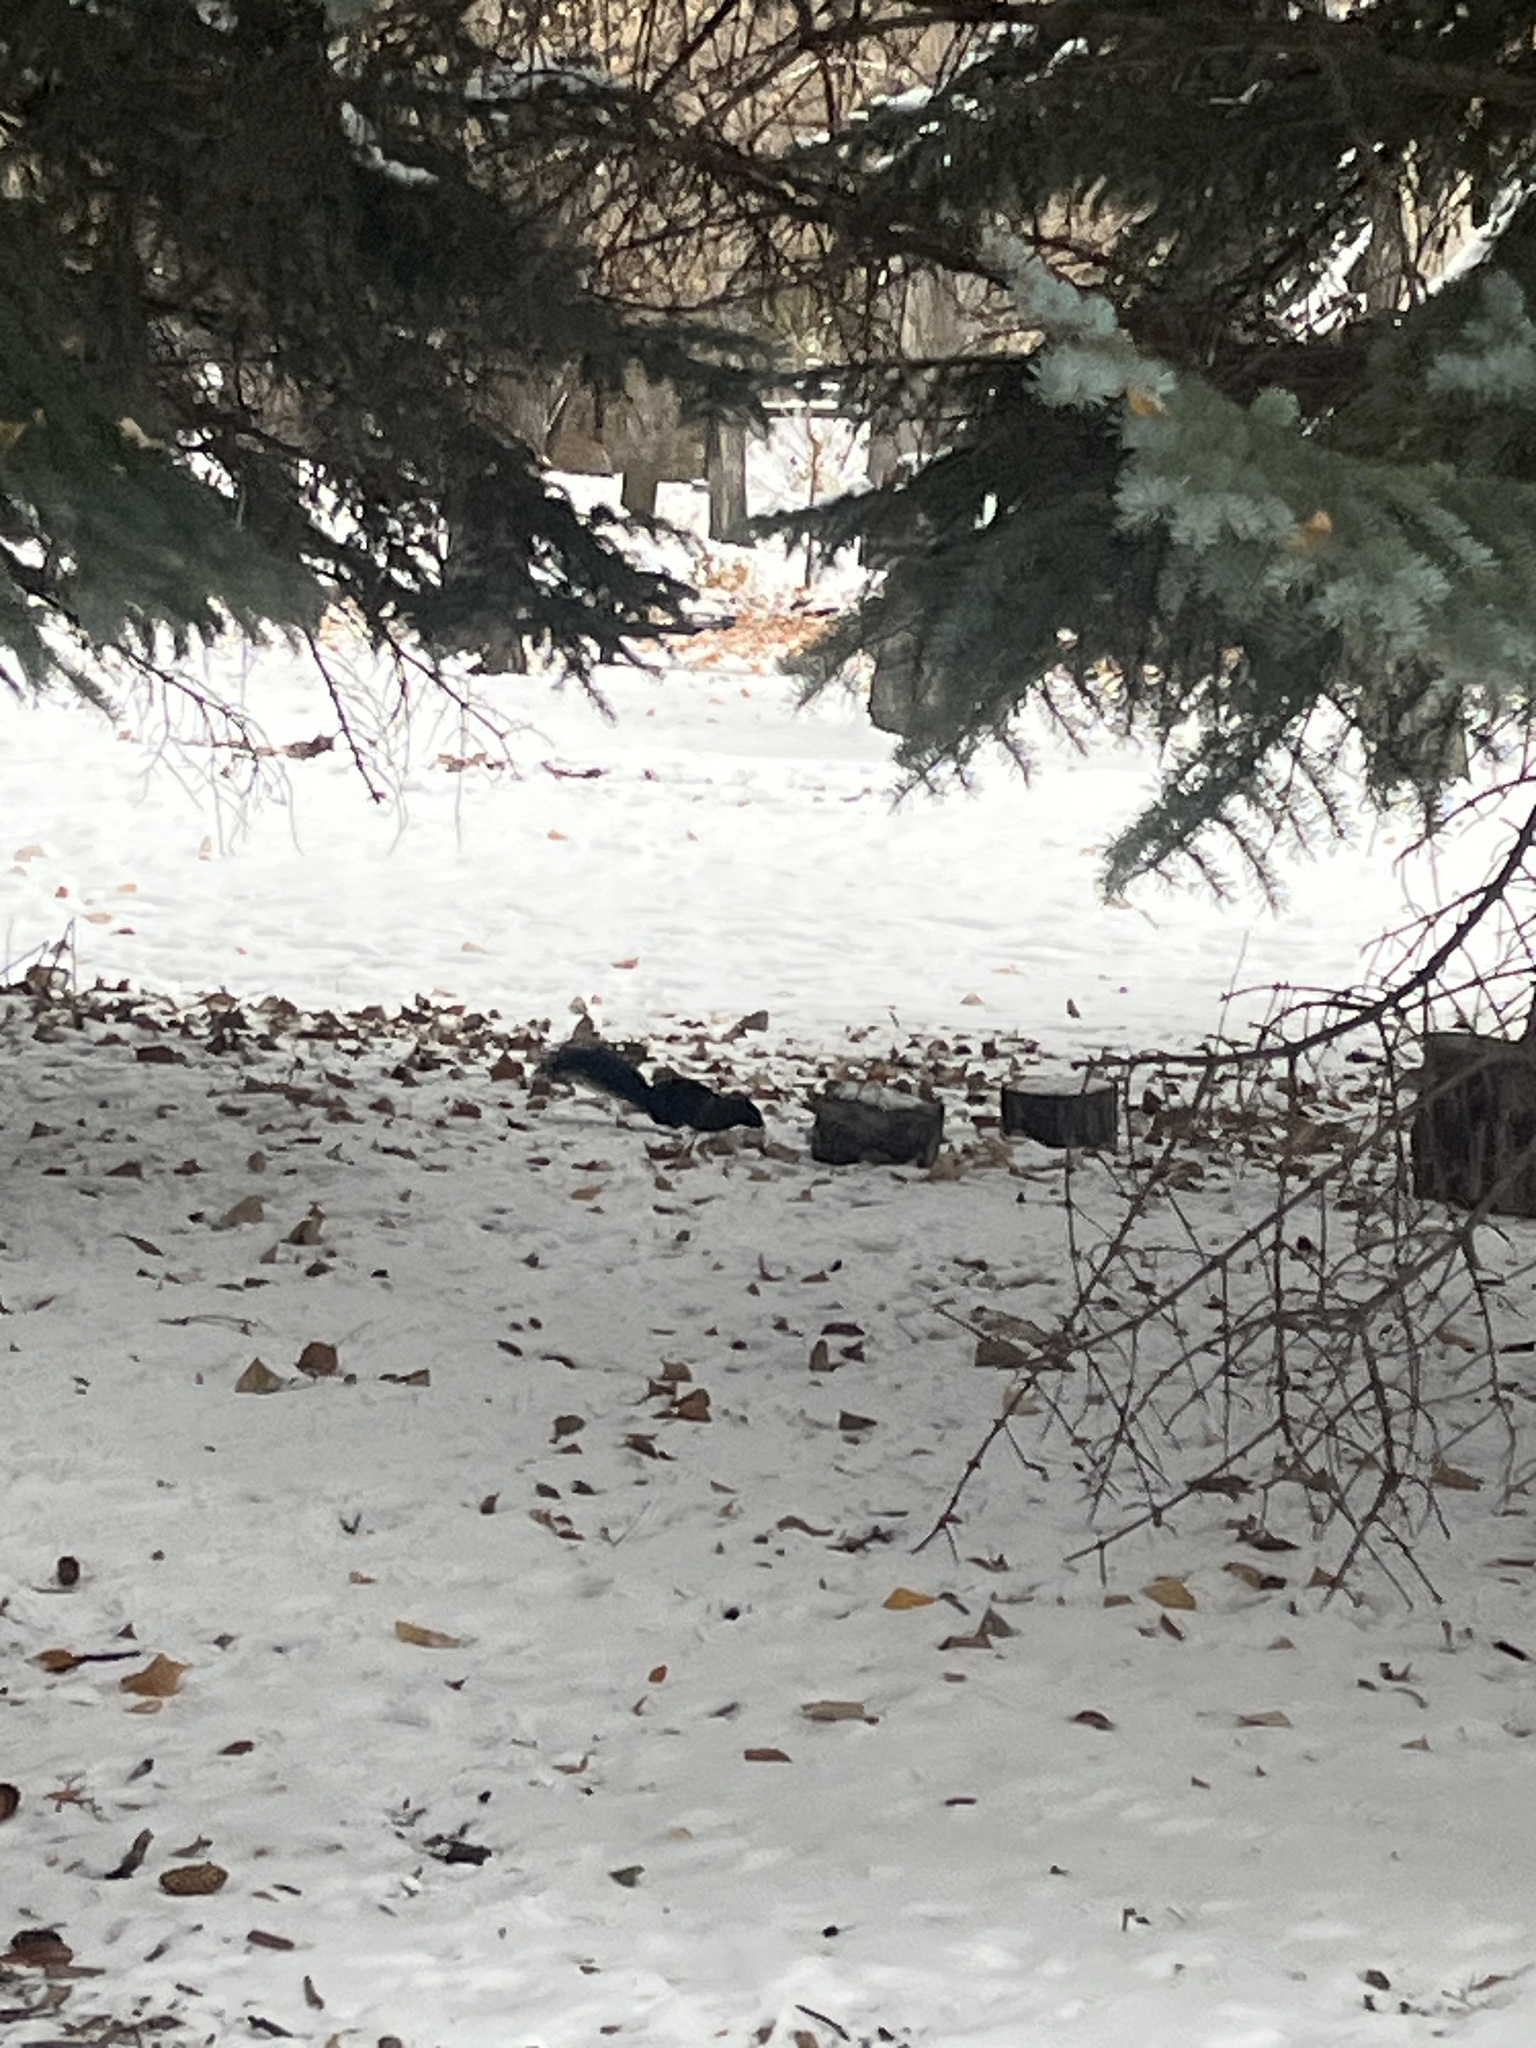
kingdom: Animalia
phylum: Chordata
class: Mammalia
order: Rodentia
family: Sciuridae
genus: Sciurus
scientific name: Sciurus carolinensis
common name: Eastern gray squirrel
